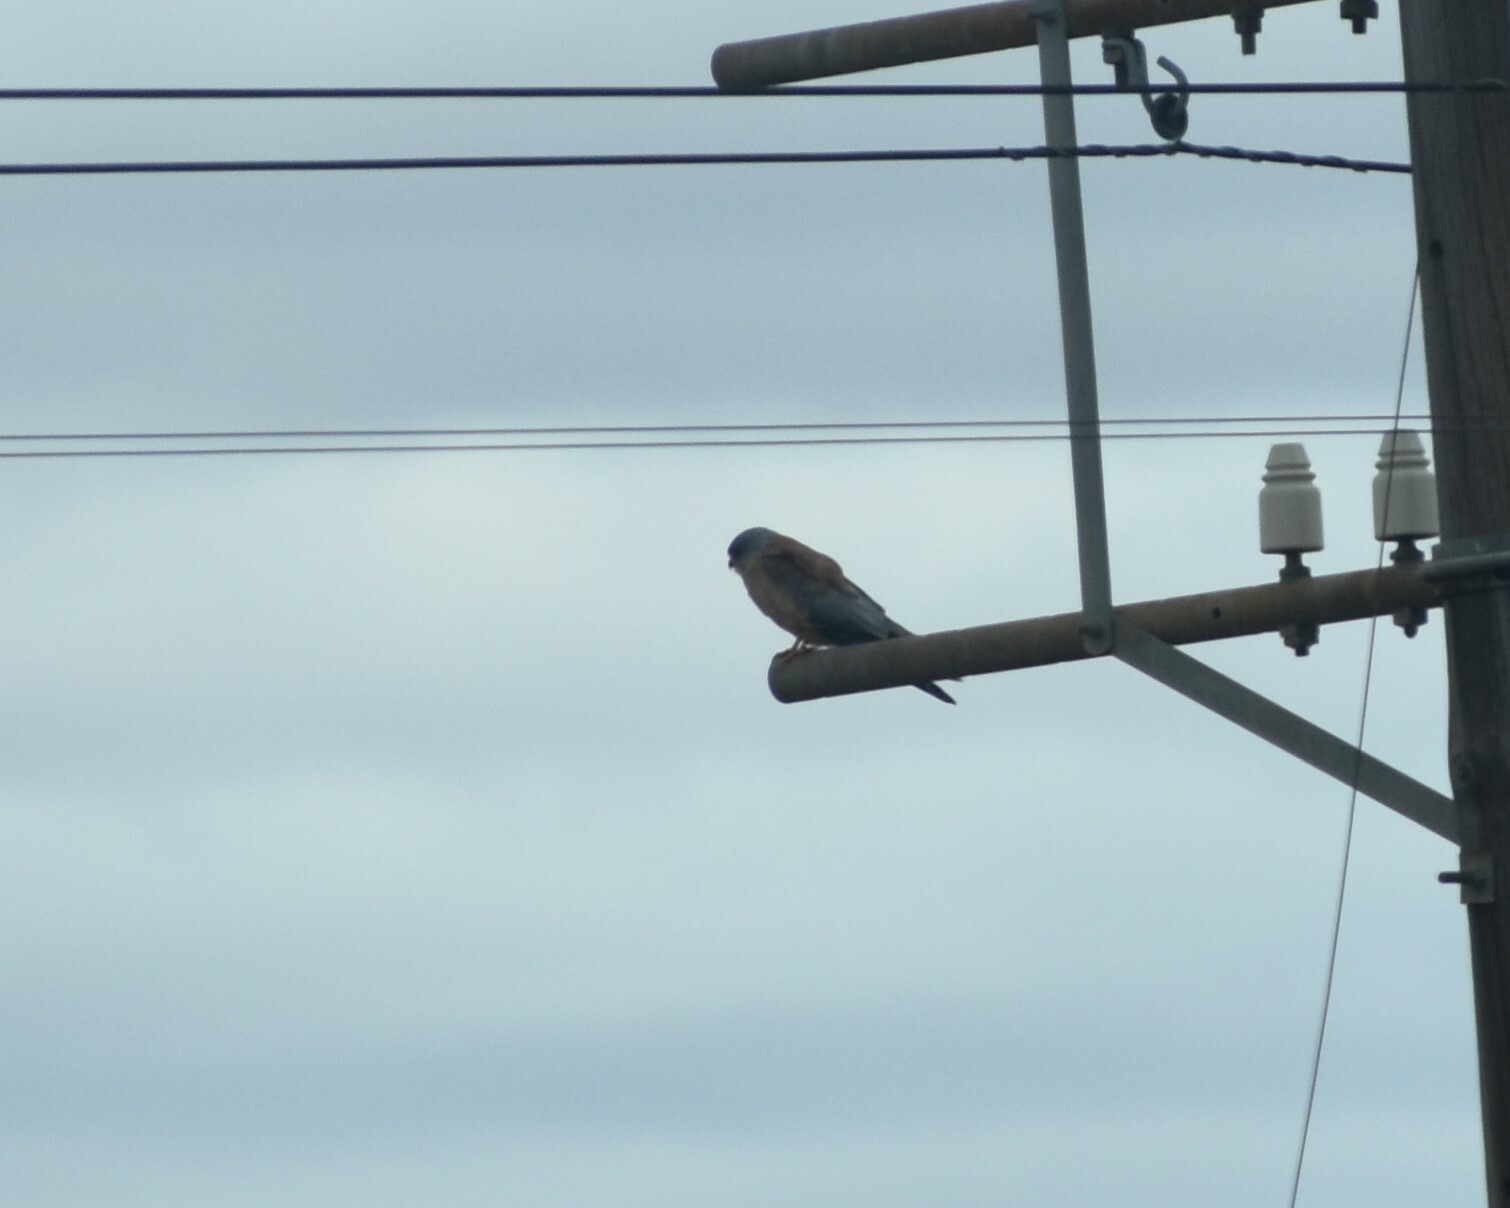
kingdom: Animalia
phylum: Chordata
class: Aves
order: Falconiformes
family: Falconidae
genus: Falco
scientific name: Falco naumanni
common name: Lesser kestrel
